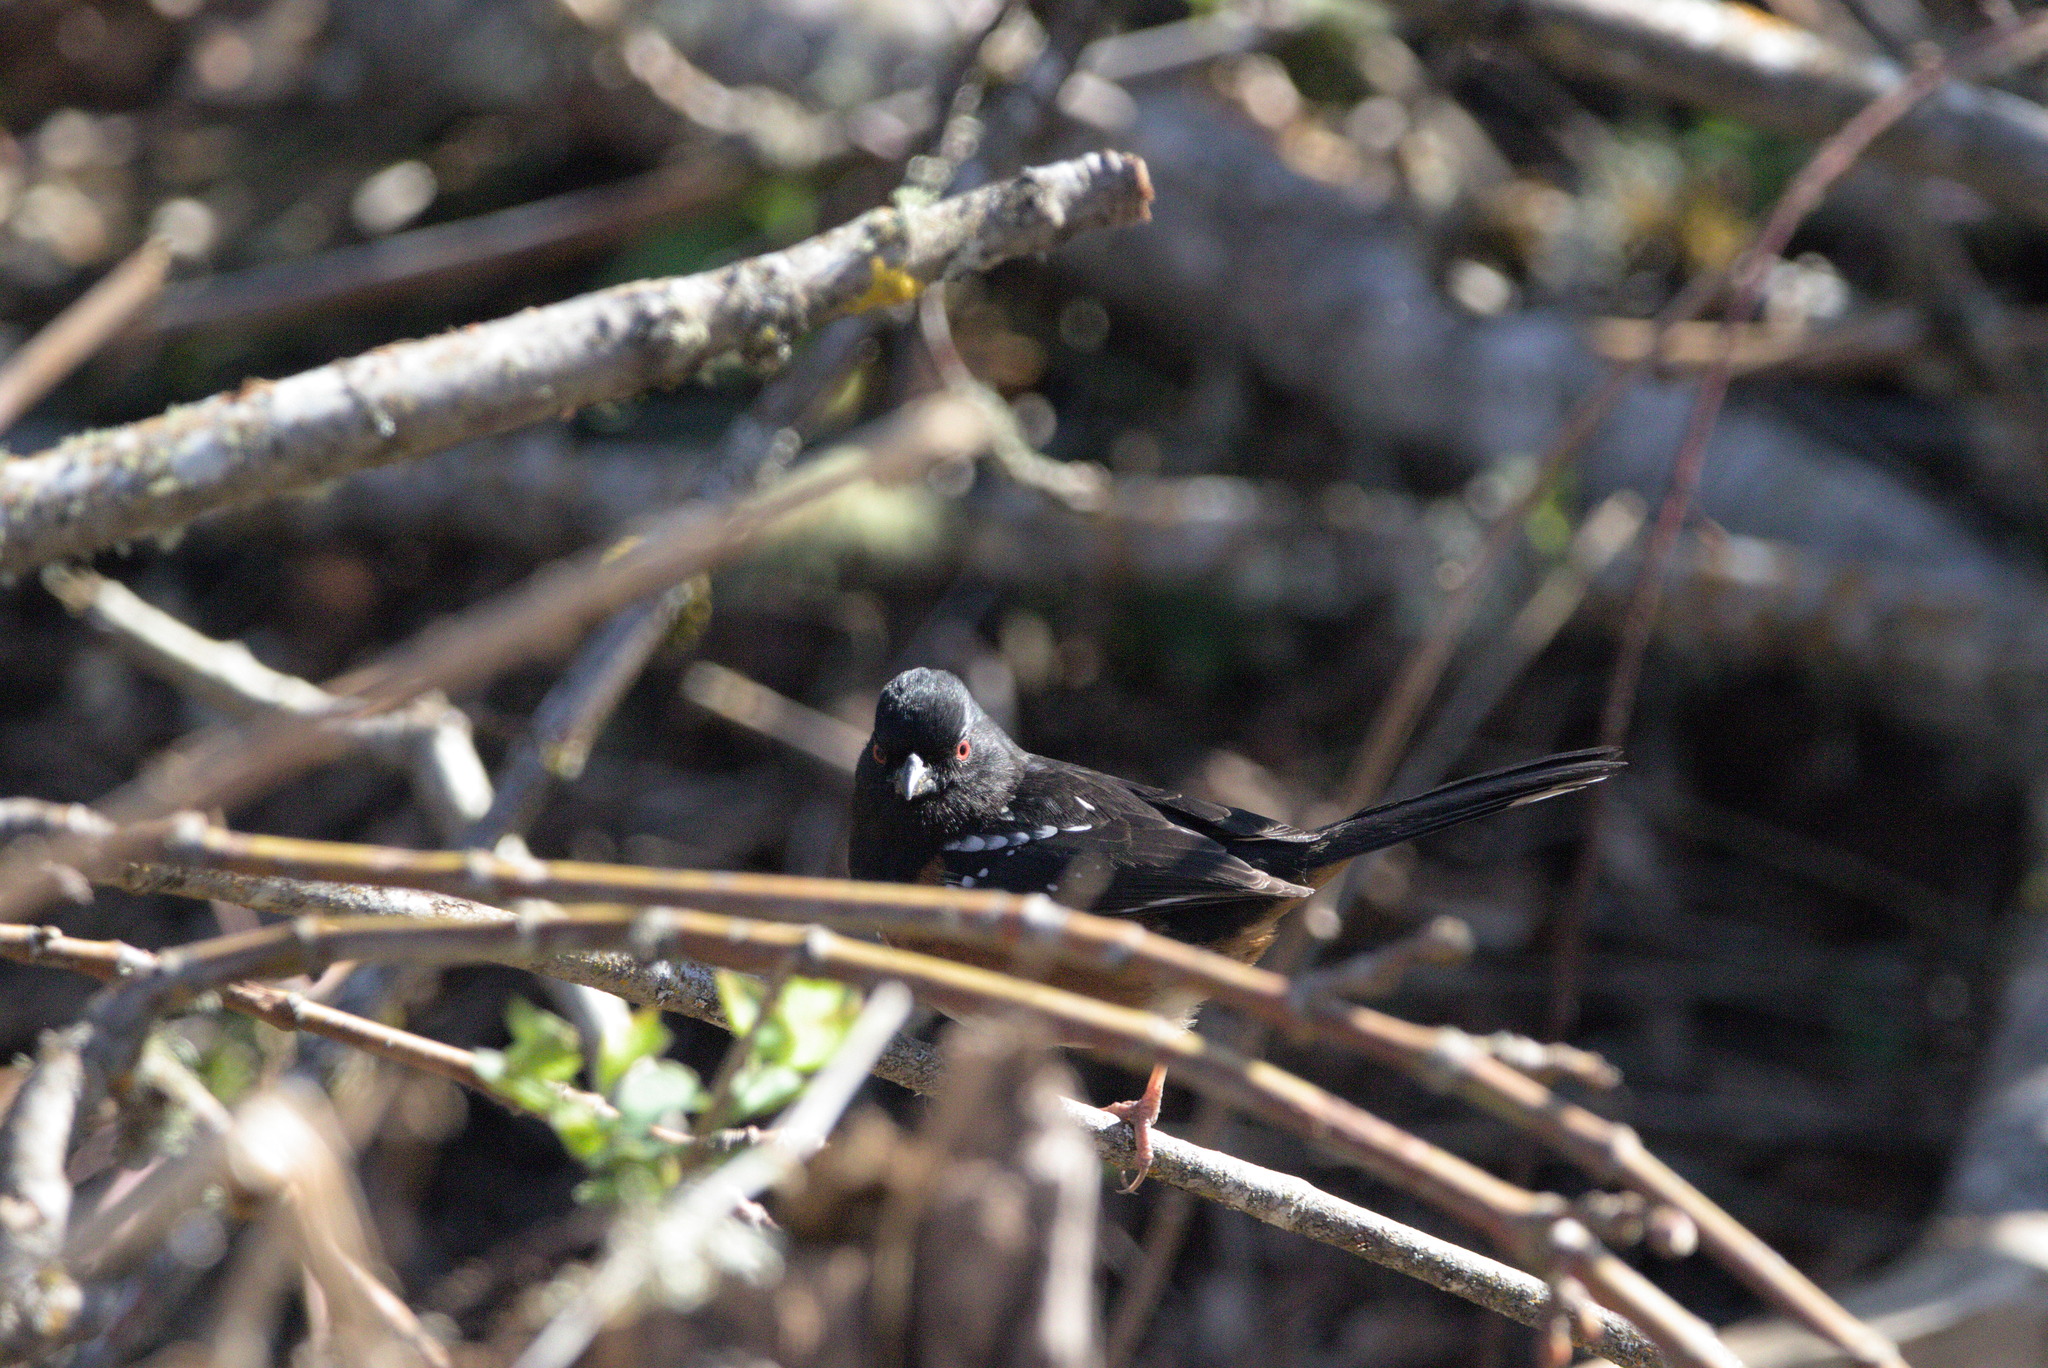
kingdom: Animalia
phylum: Chordata
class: Aves
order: Passeriformes
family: Passerellidae
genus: Pipilo
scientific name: Pipilo maculatus
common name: Spotted towhee
